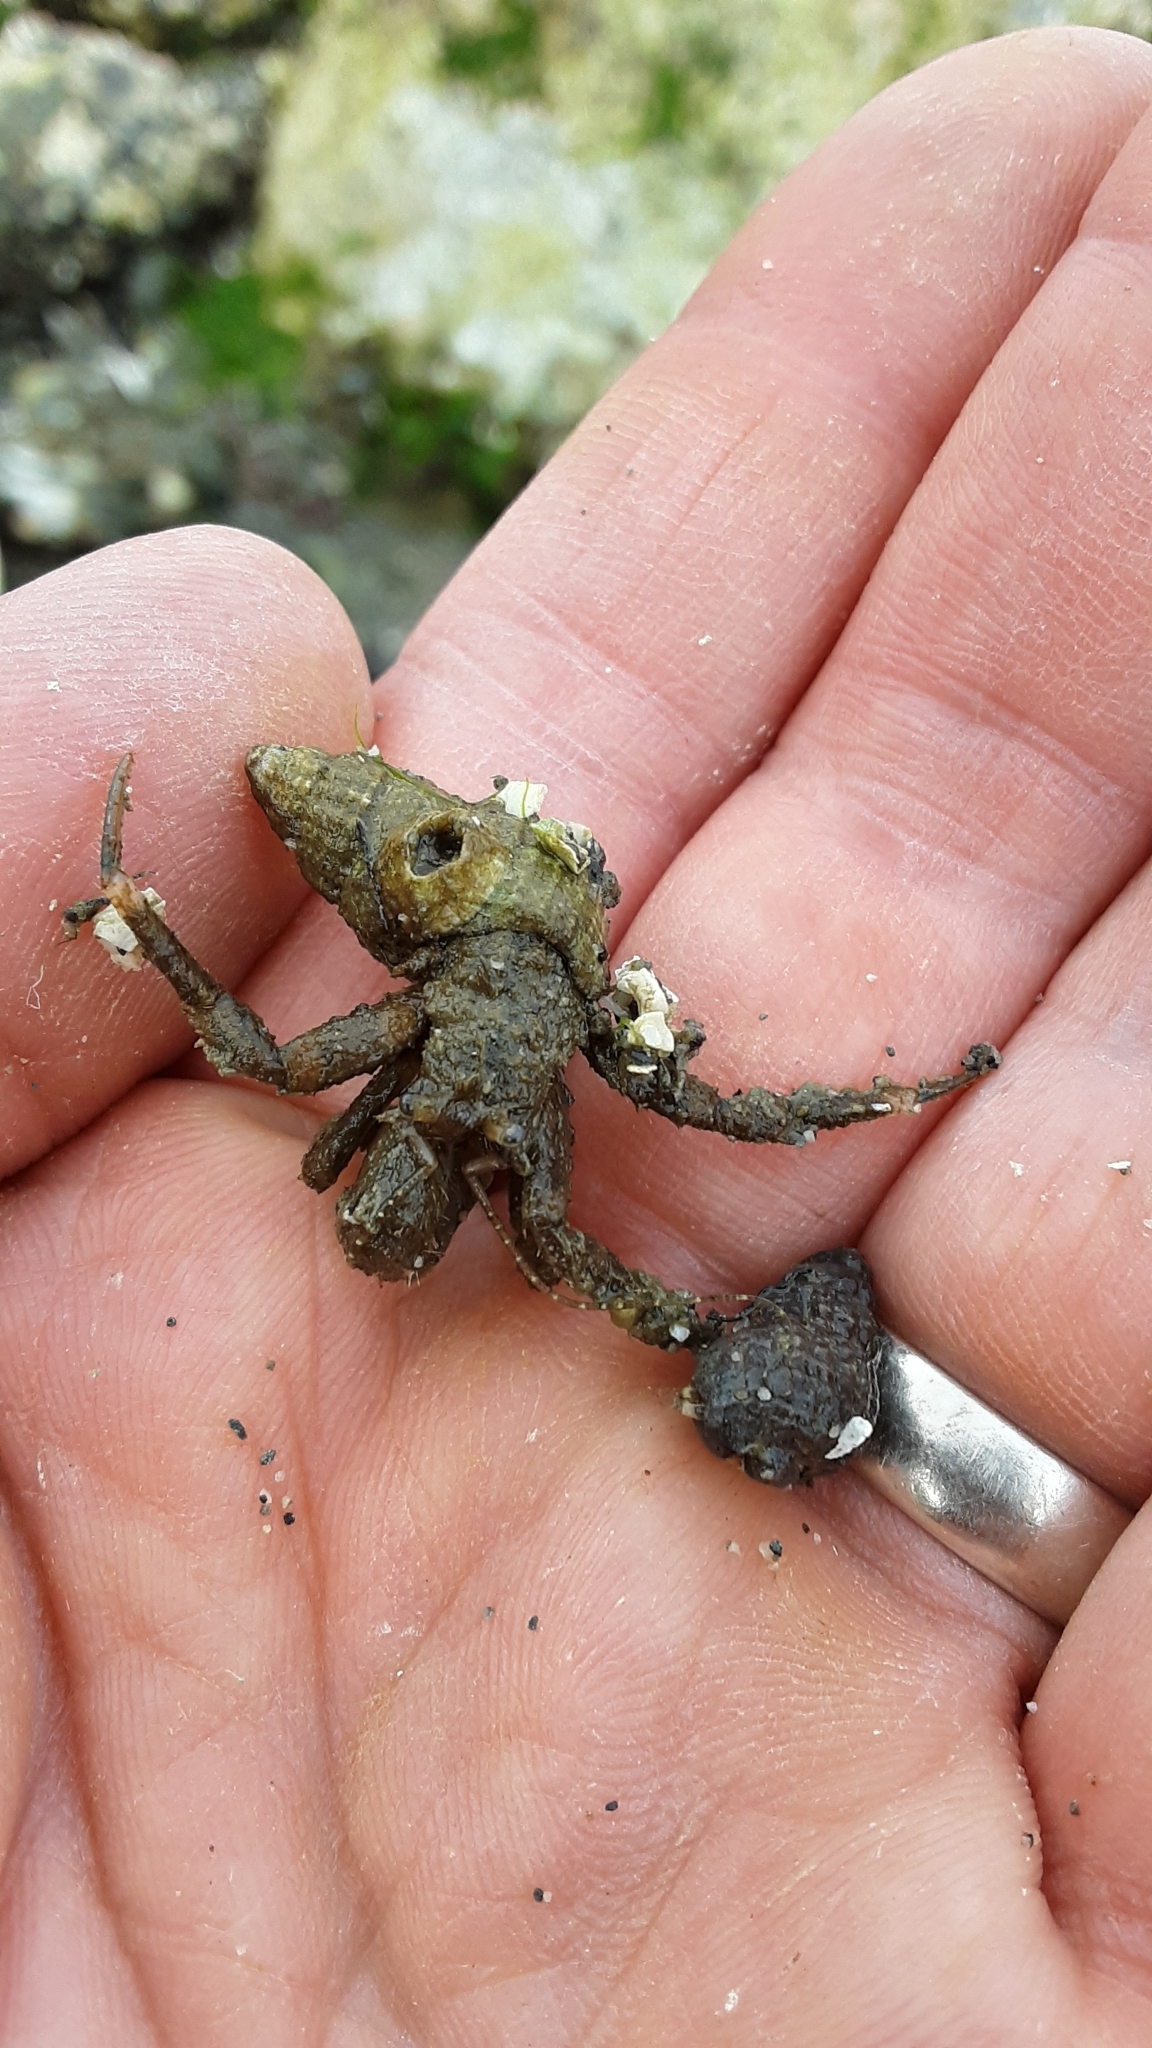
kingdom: Animalia
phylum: Arthropoda
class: Malacostraca
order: Decapoda
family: Paguridae
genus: Pagurus
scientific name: Pagurus hirsutiusculus
